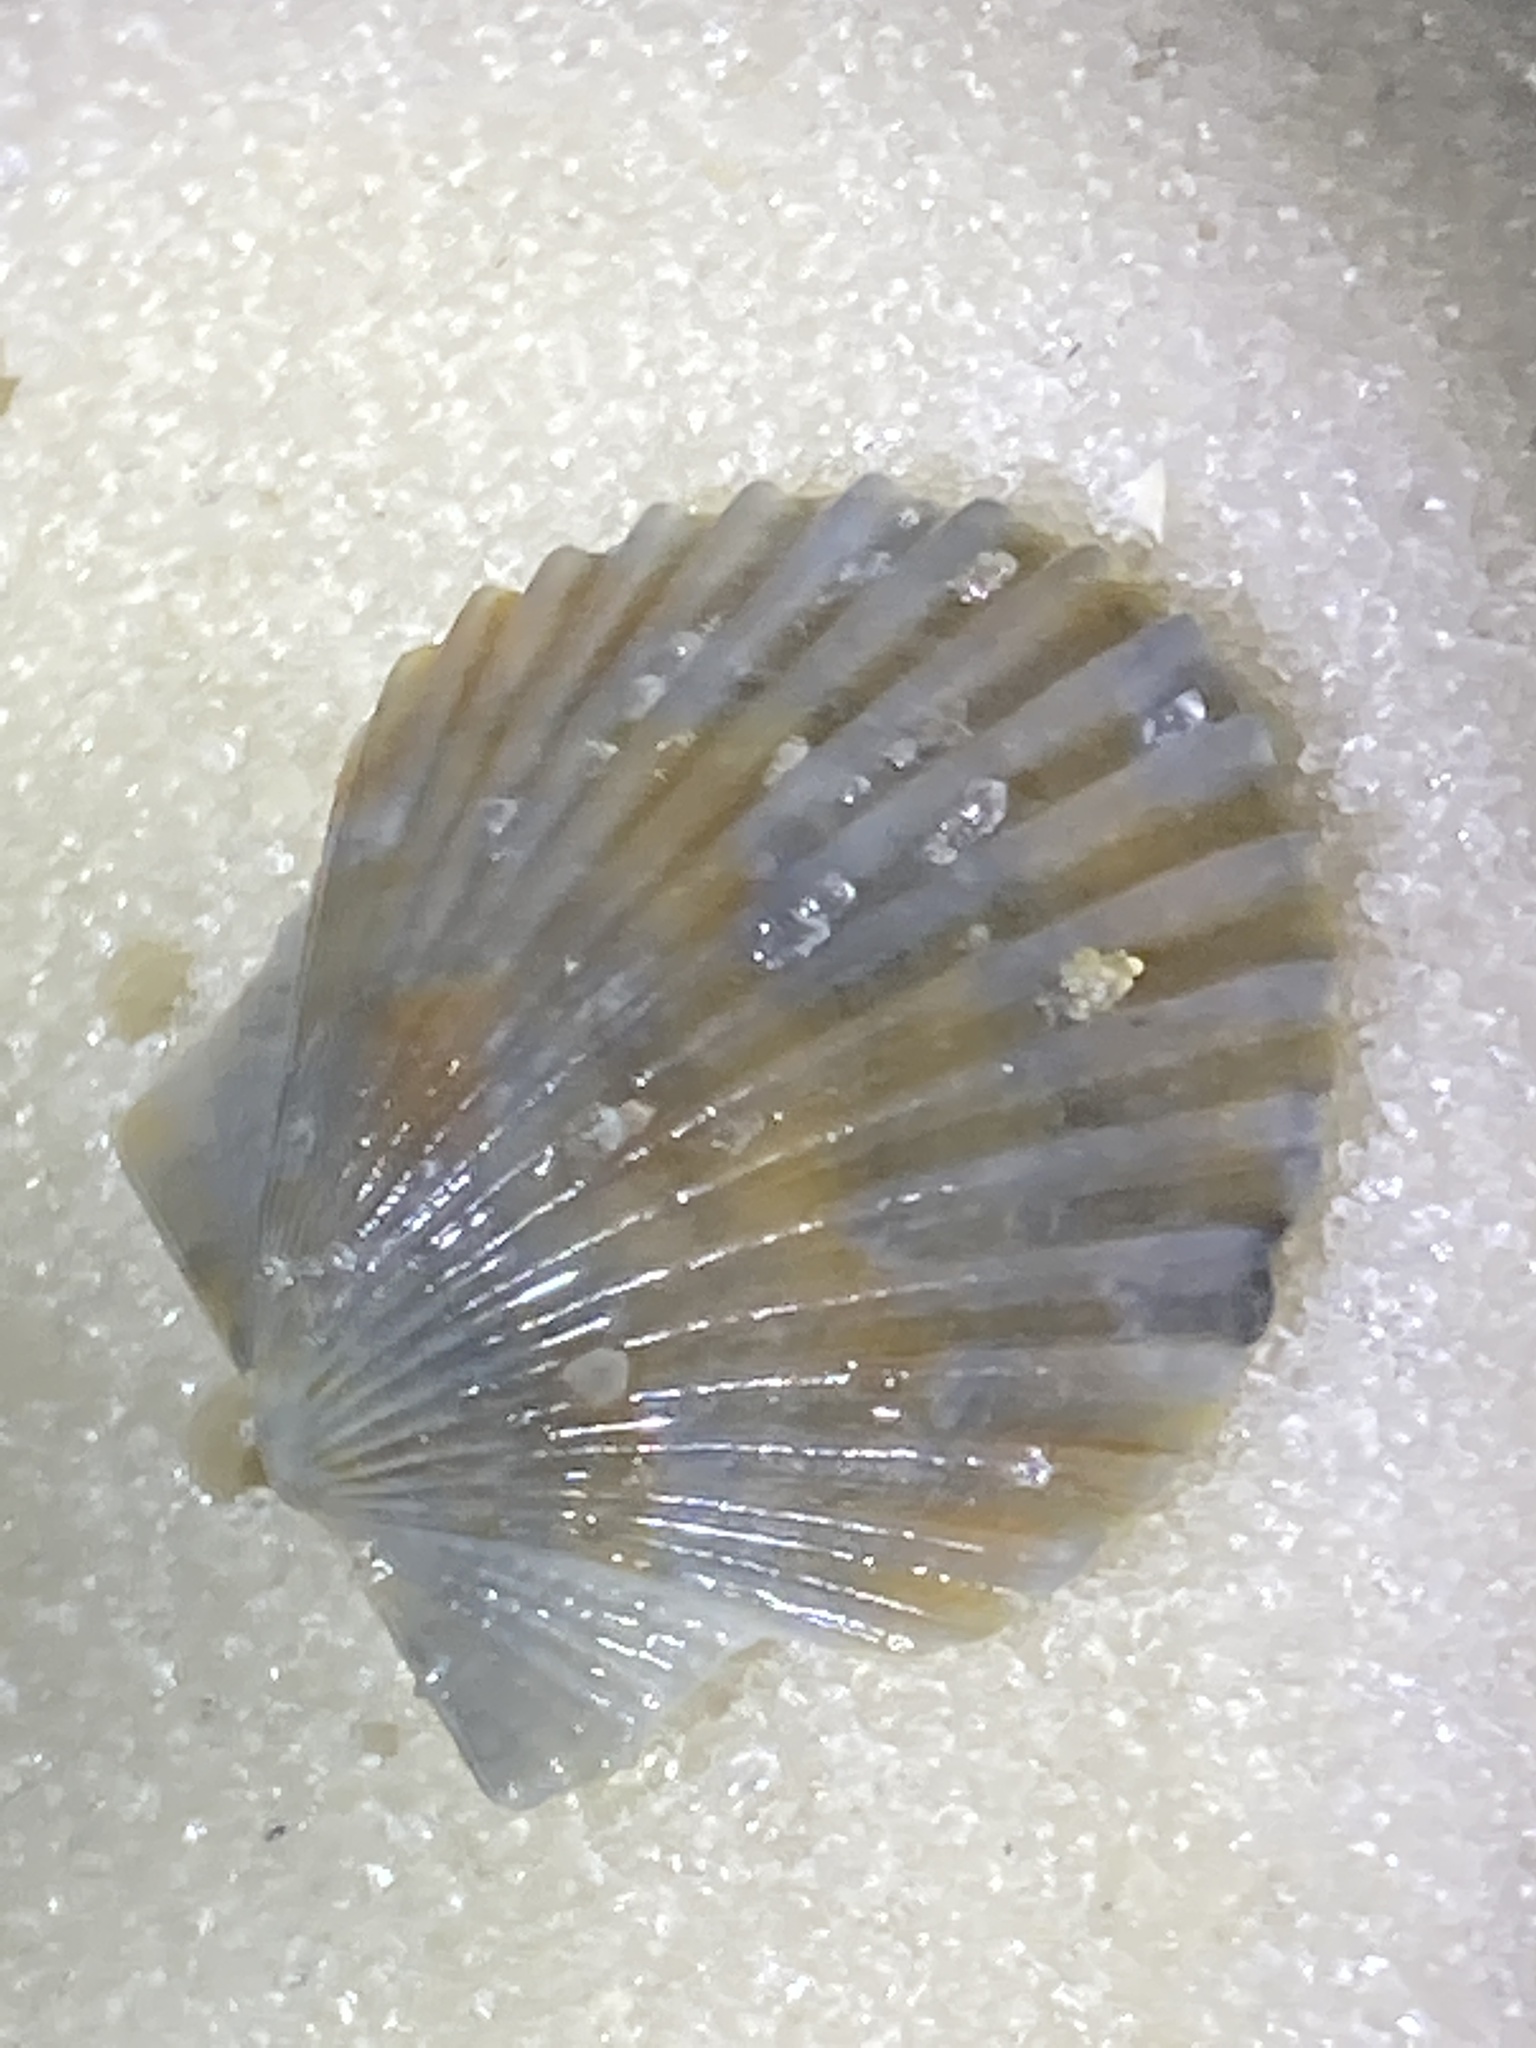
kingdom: Animalia
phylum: Mollusca
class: Bivalvia
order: Pectinida
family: Pectinidae
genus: Argopecten
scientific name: Argopecten irradians
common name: Atlantic bay scallop
